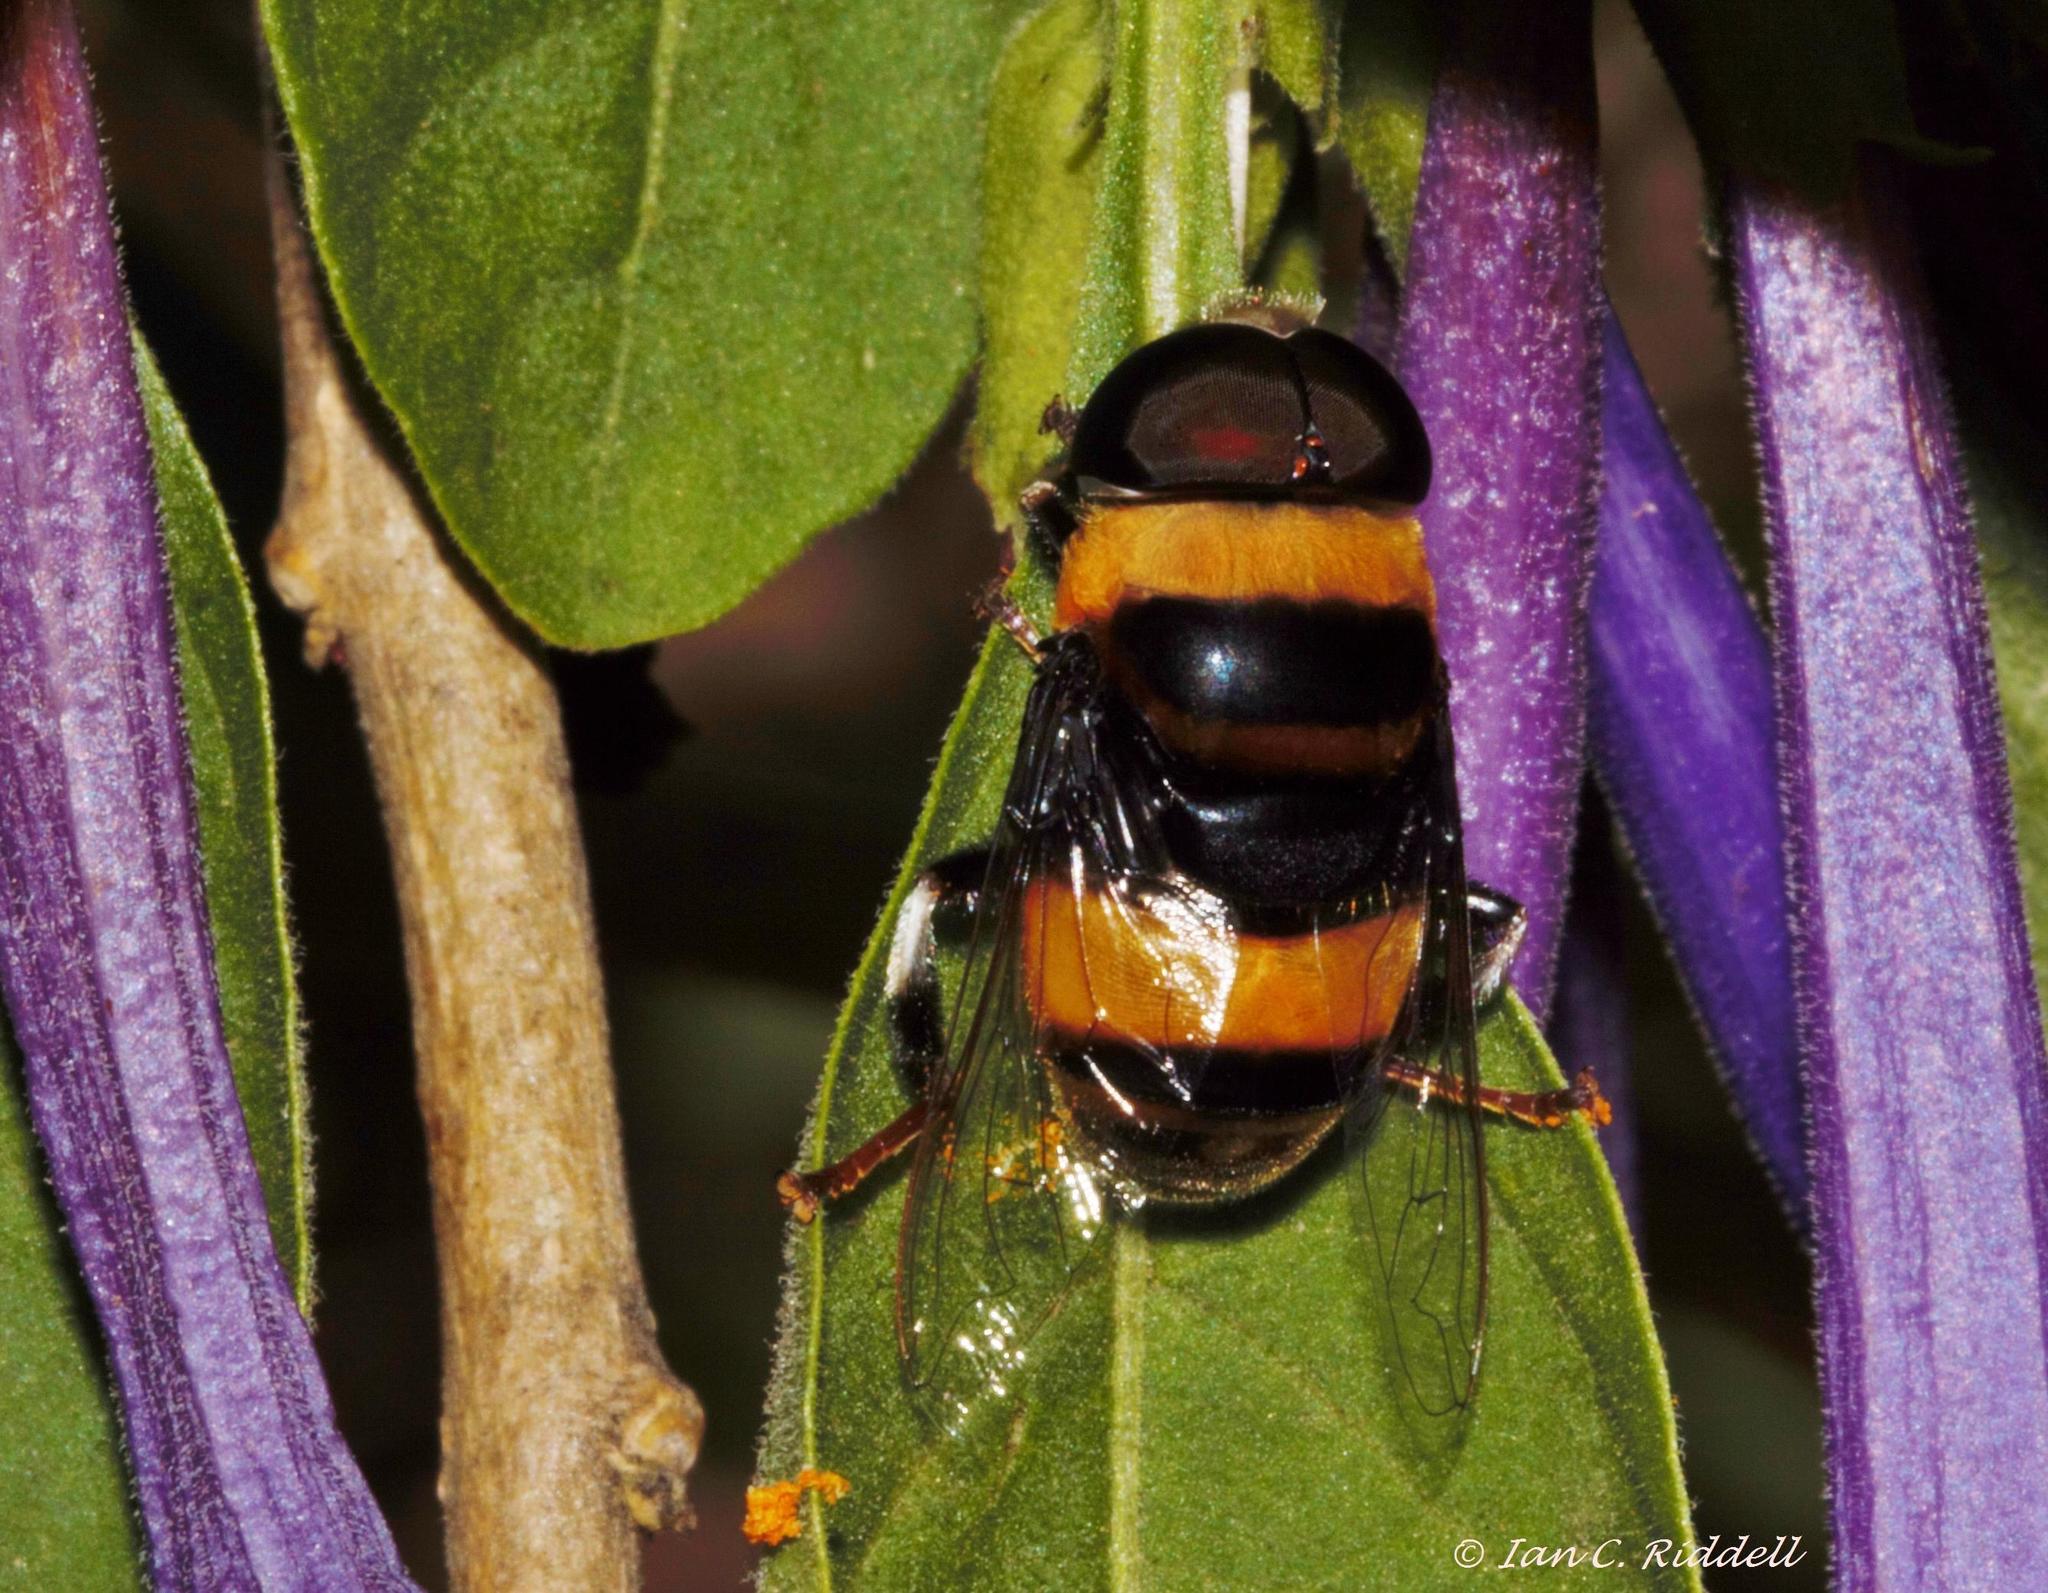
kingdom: Animalia
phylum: Arthropoda
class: Insecta
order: Diptera
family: Syrphidae
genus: Phytomia
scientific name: Phytomia curta
